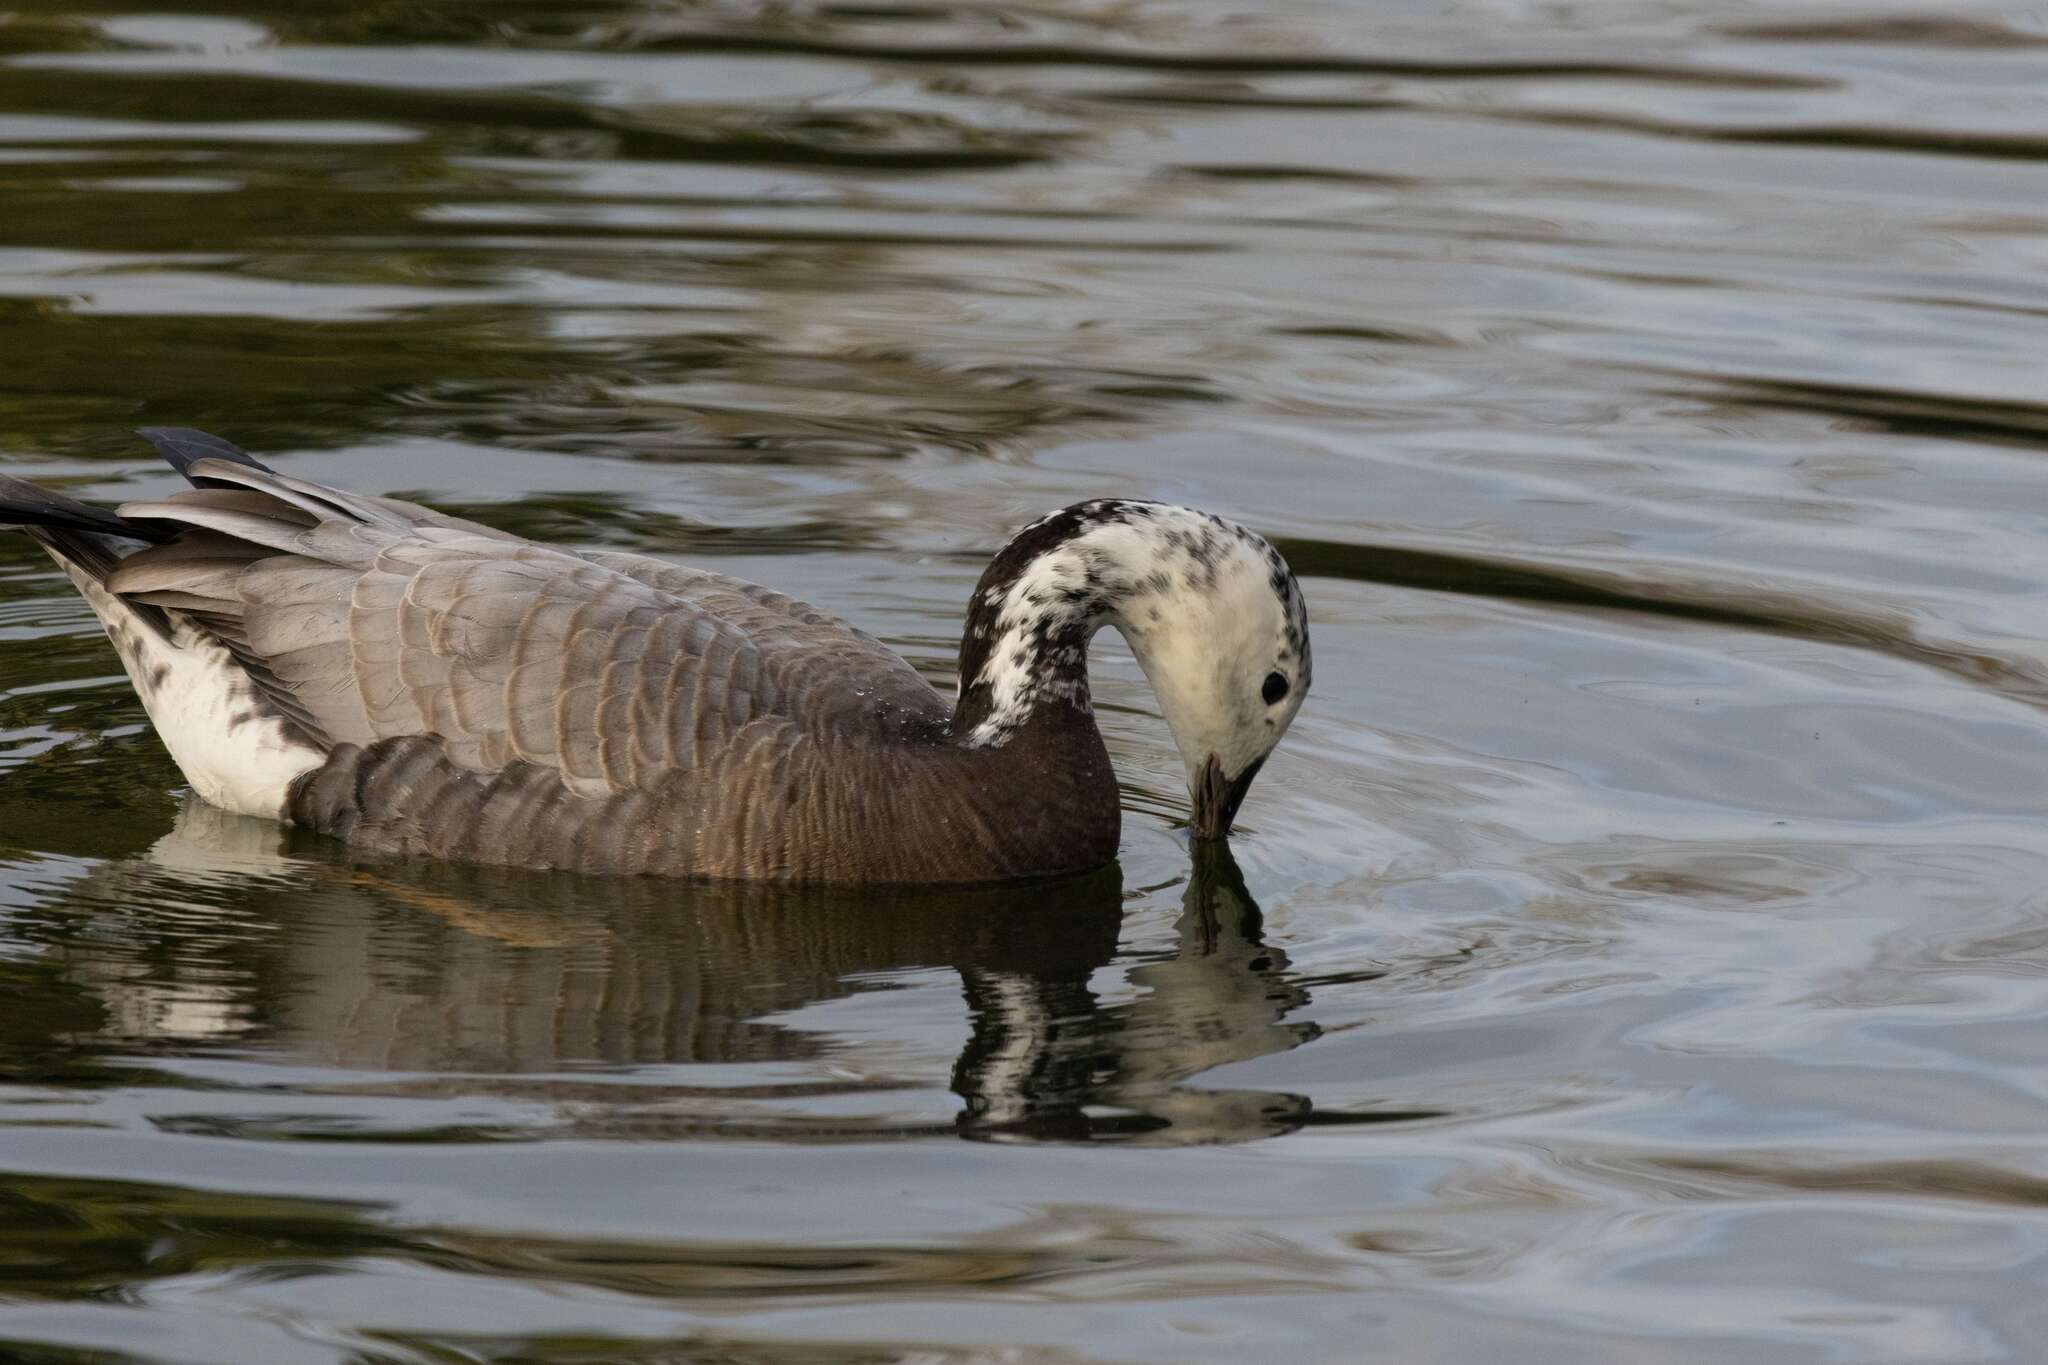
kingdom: Animalia
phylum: Chordata
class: Aves
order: Anseriformes
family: Anatidae
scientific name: Anatidae
